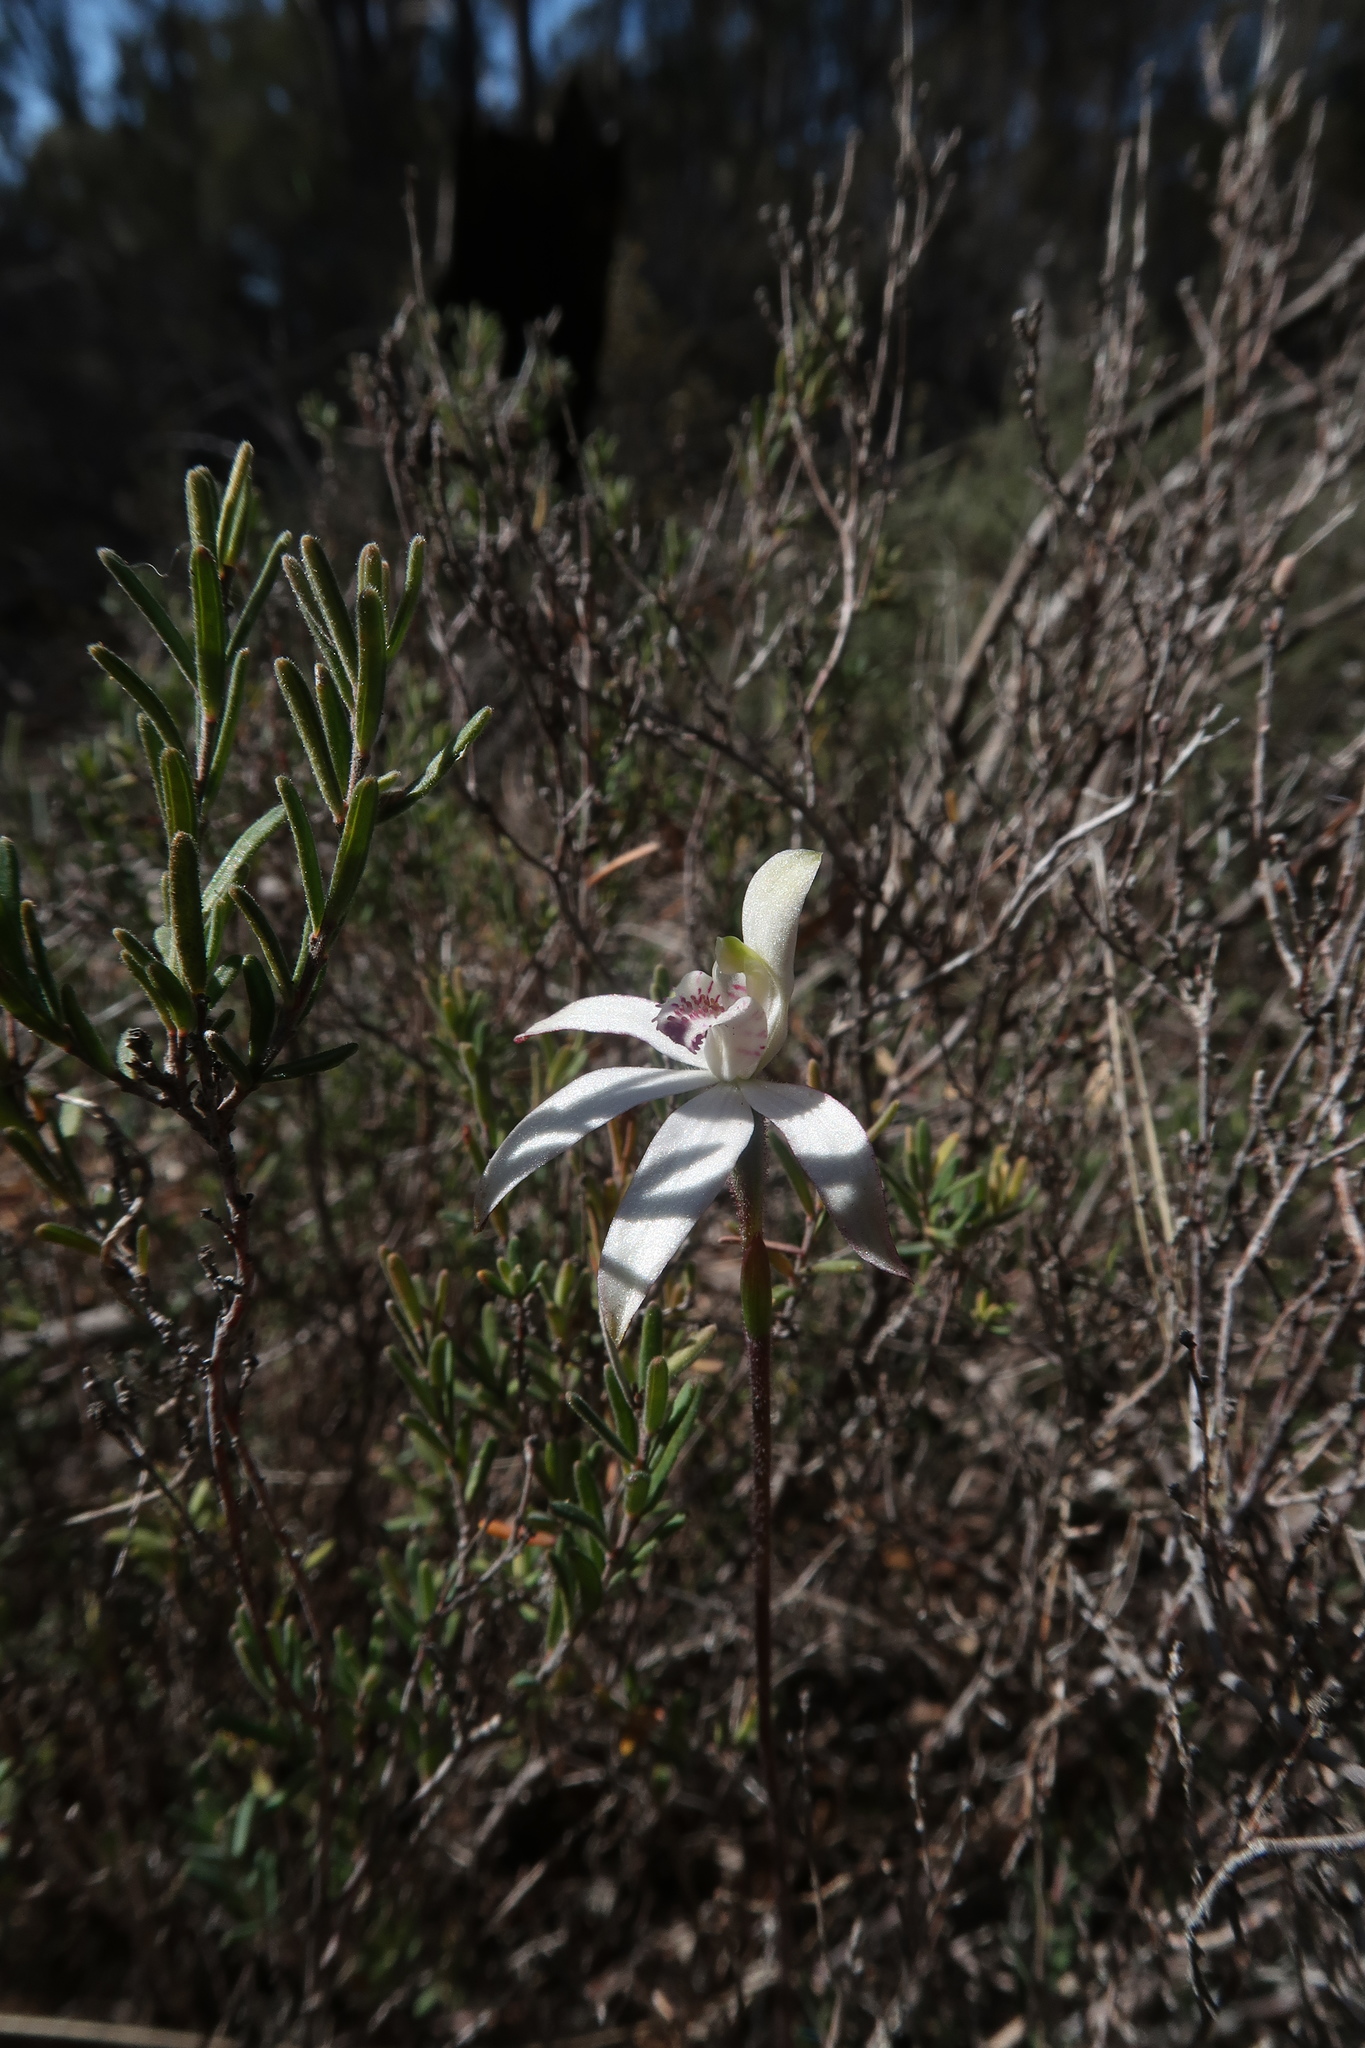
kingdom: Plantae
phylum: Tracheophyta
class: Liliopsida
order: Asparagales
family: Orchidaceae
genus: Caladenia
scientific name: Caladenia gracilis
